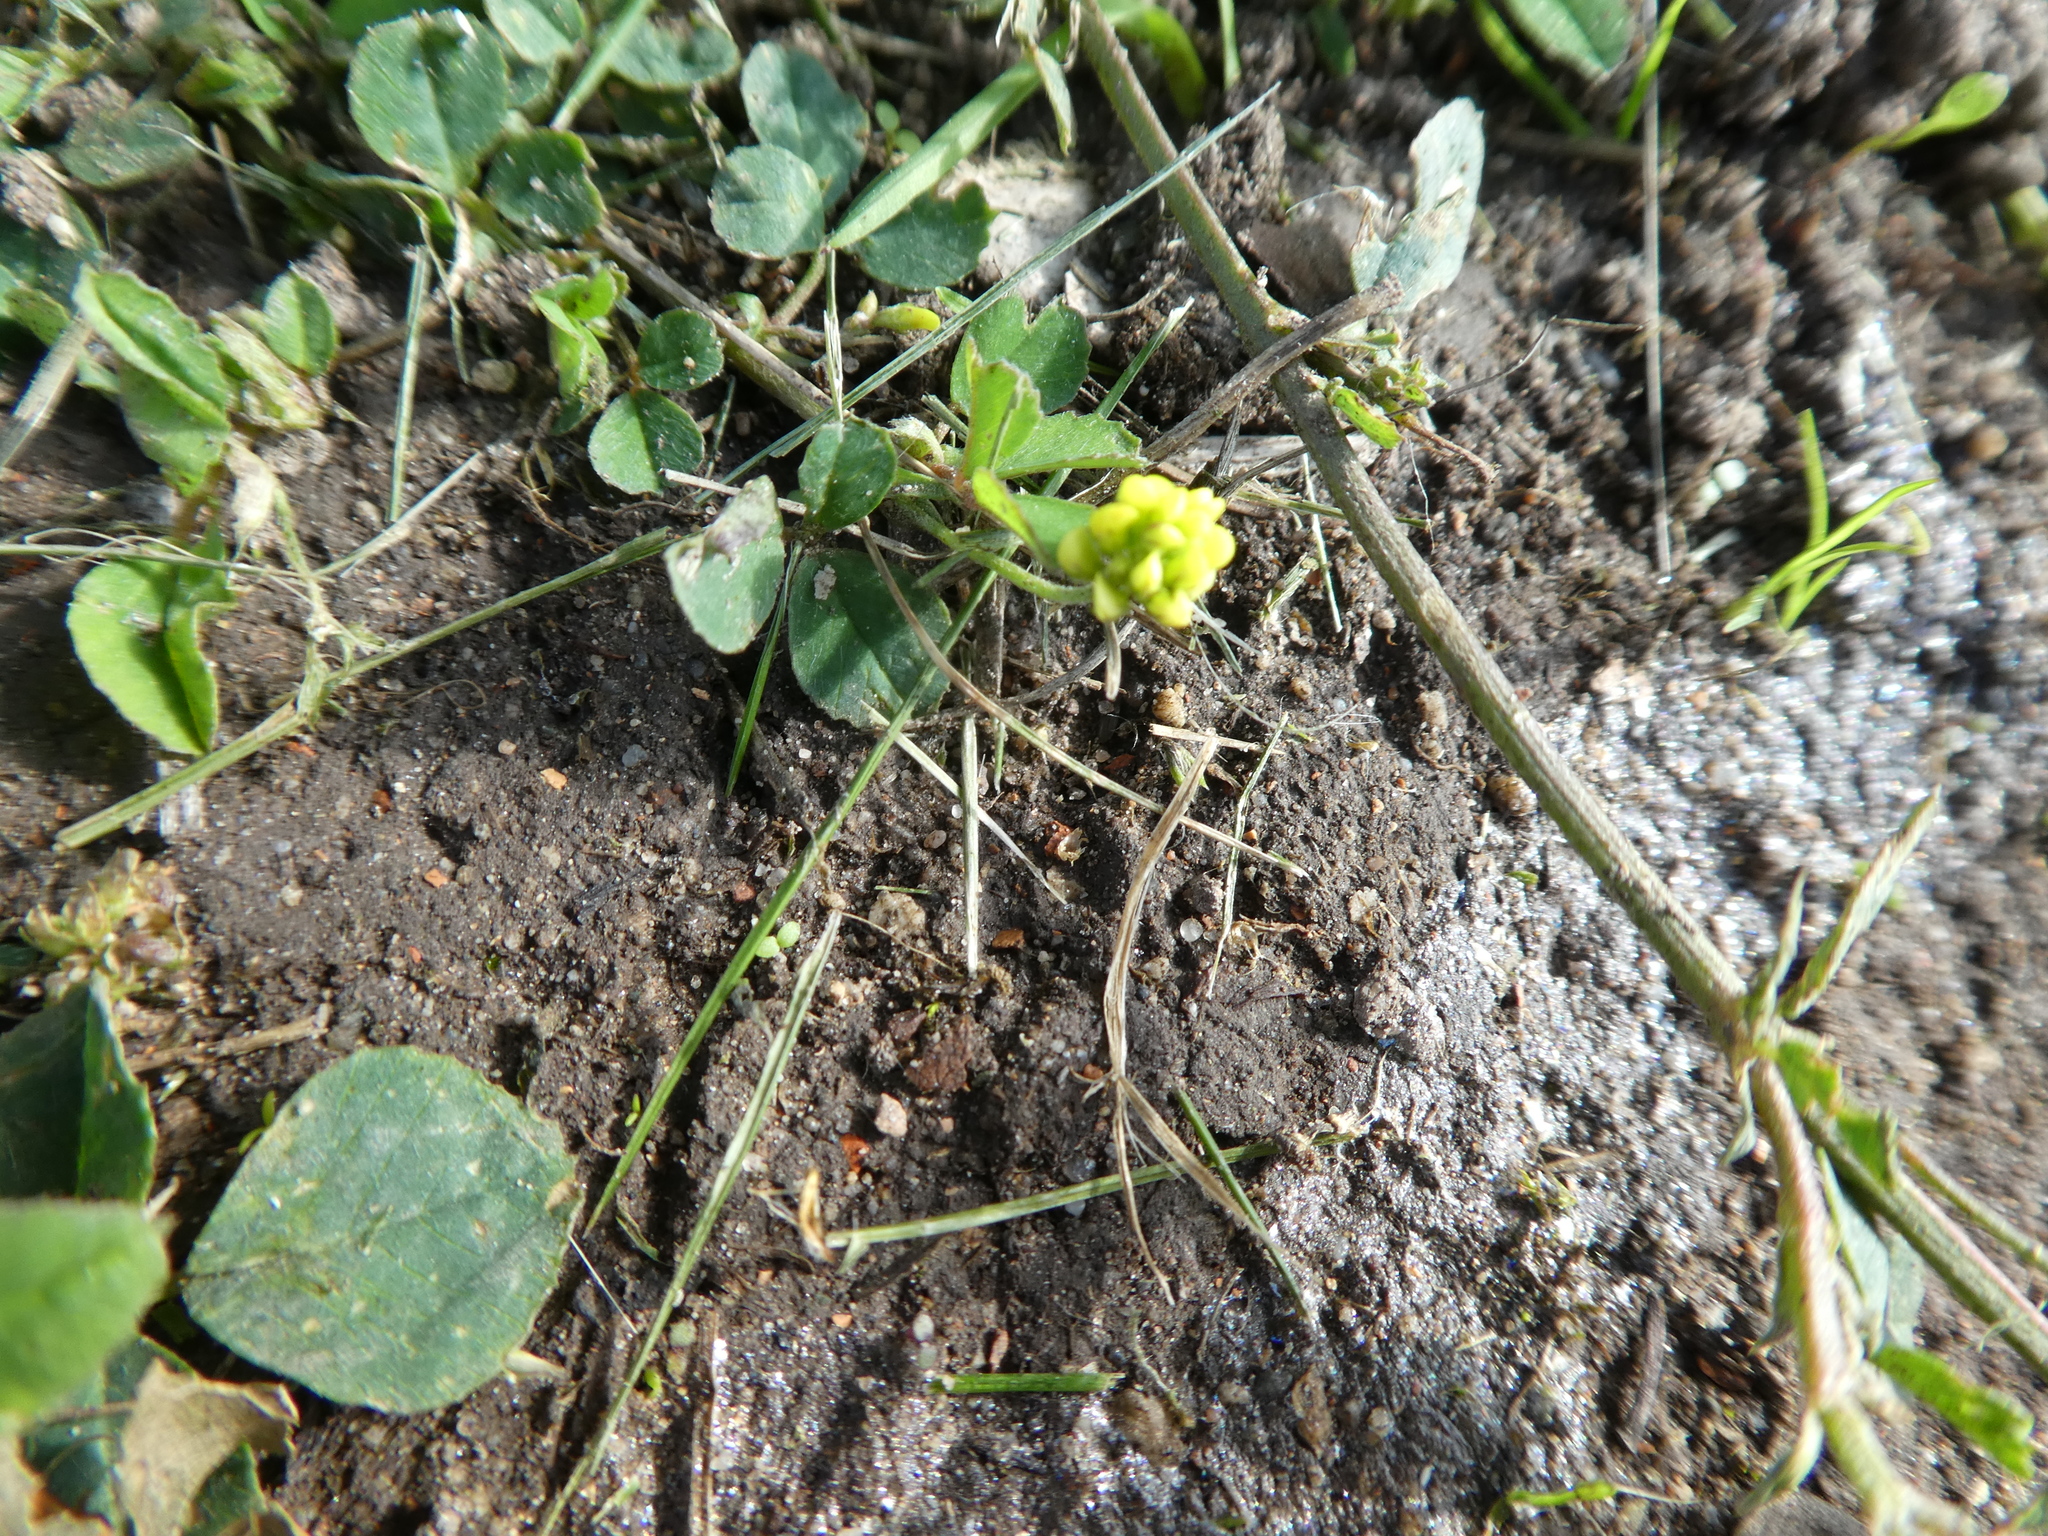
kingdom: Plantae
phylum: Tracheophyta
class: Magnoliopsida
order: Fabales
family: Fabaceae
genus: Medicago
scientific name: Medicago lupulina
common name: Black medick
